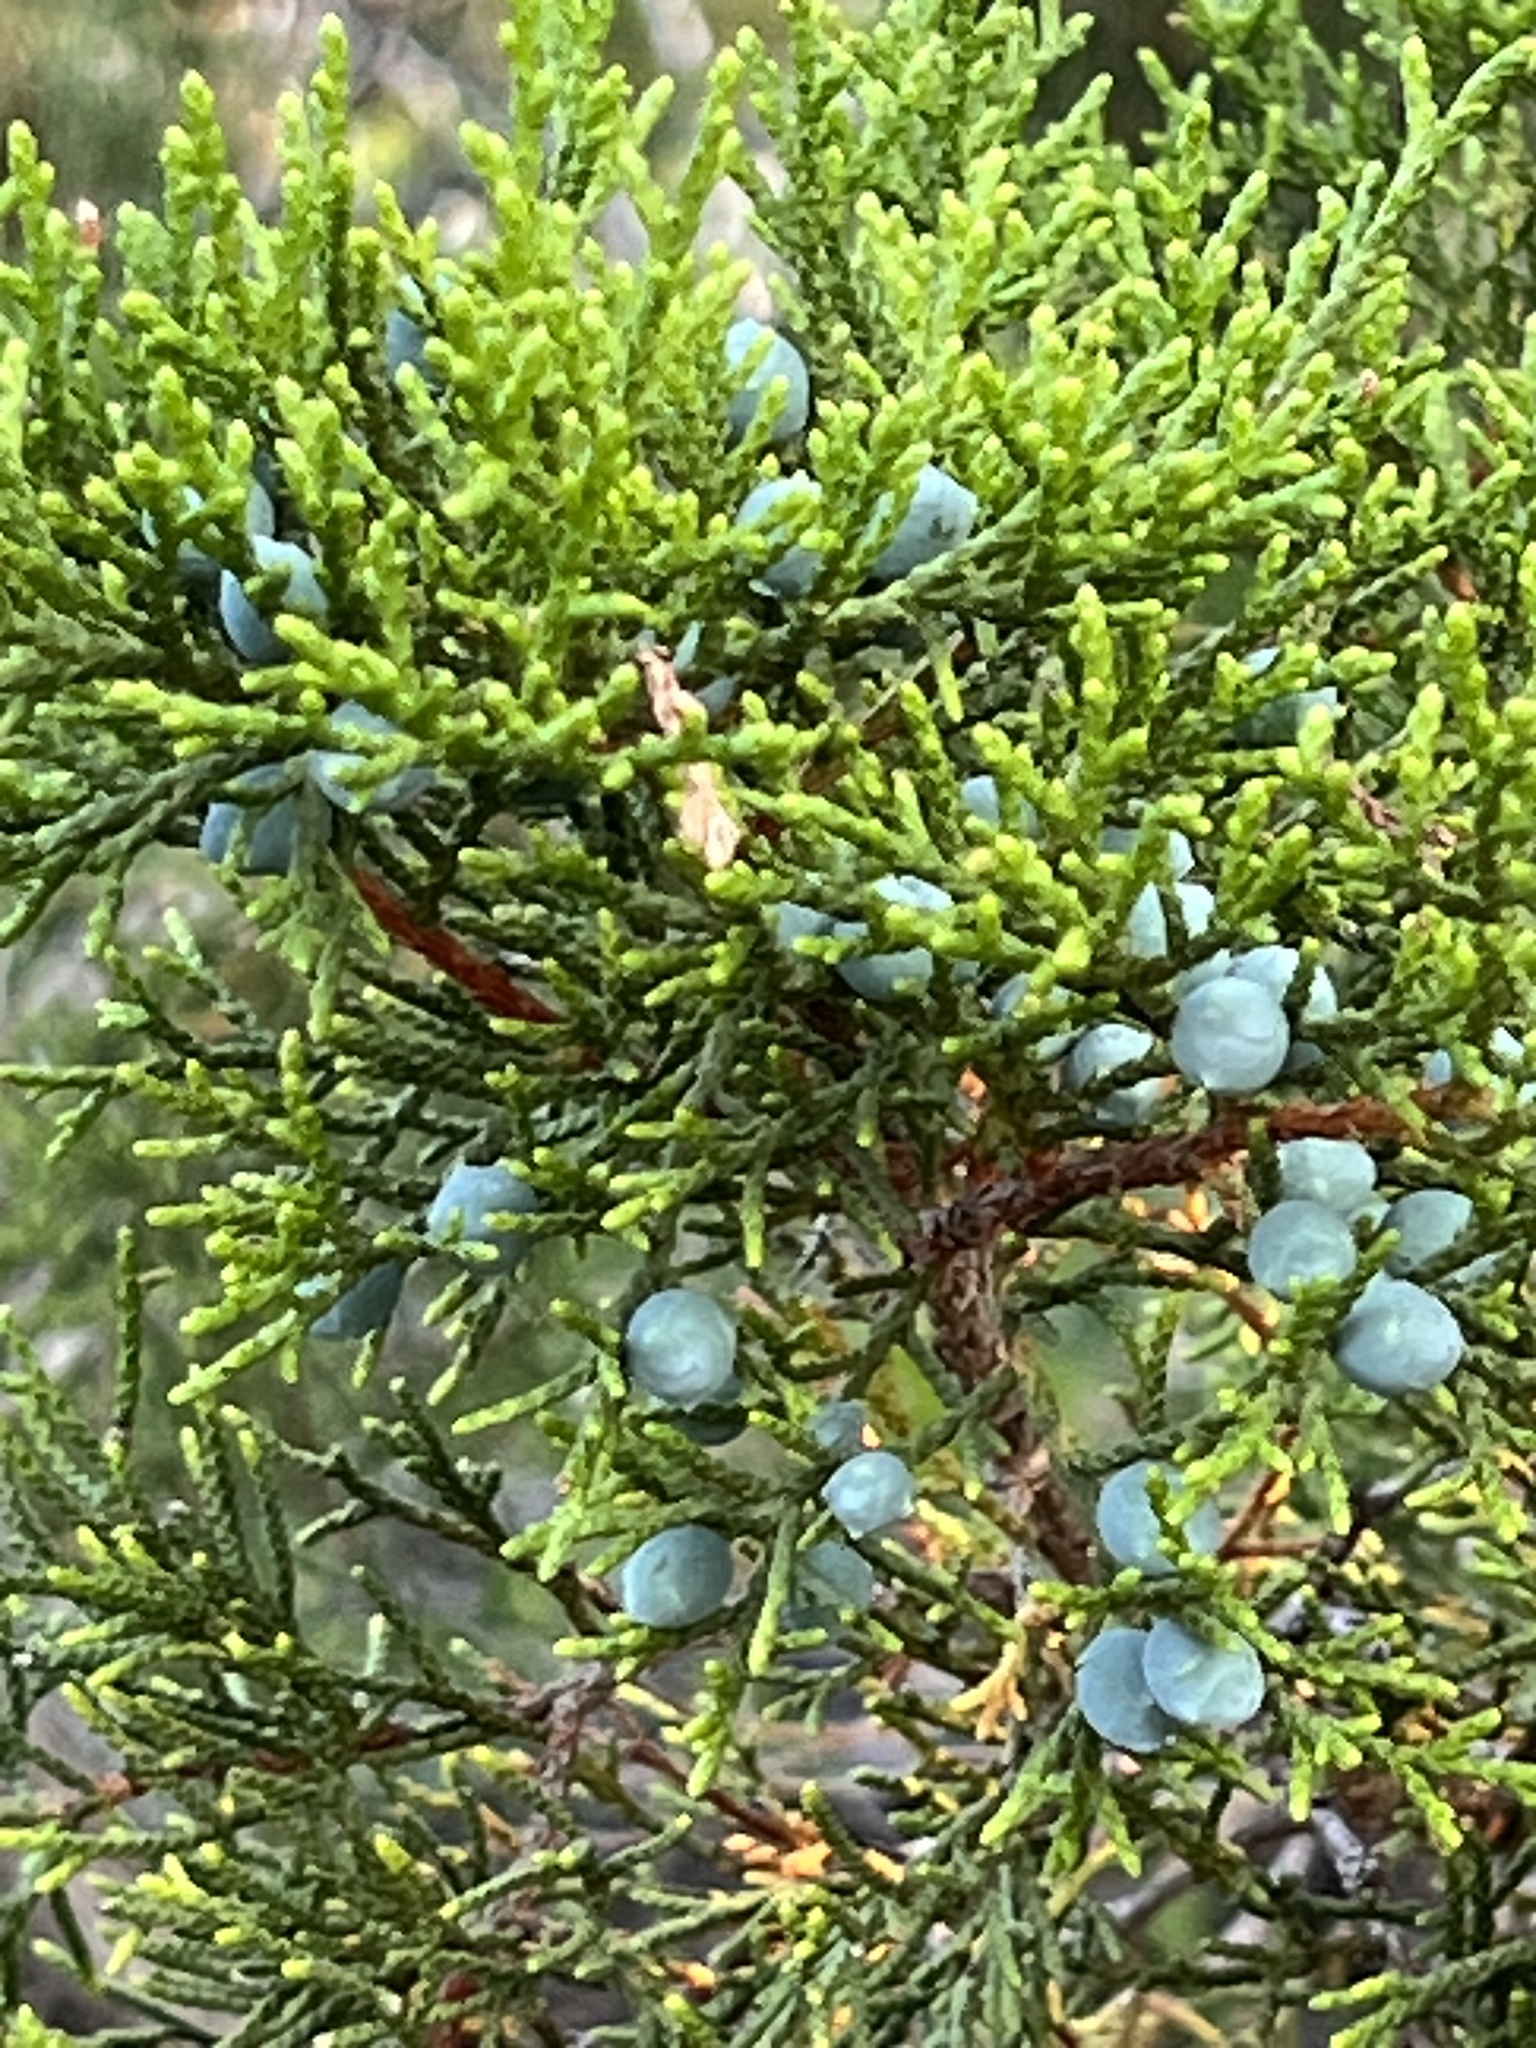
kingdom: Plantae
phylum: Tracheophyta
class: Pinopsida
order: Pinales
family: Cupressaceae
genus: Juniperus
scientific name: Juniperus ashei
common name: Mexican juniper
